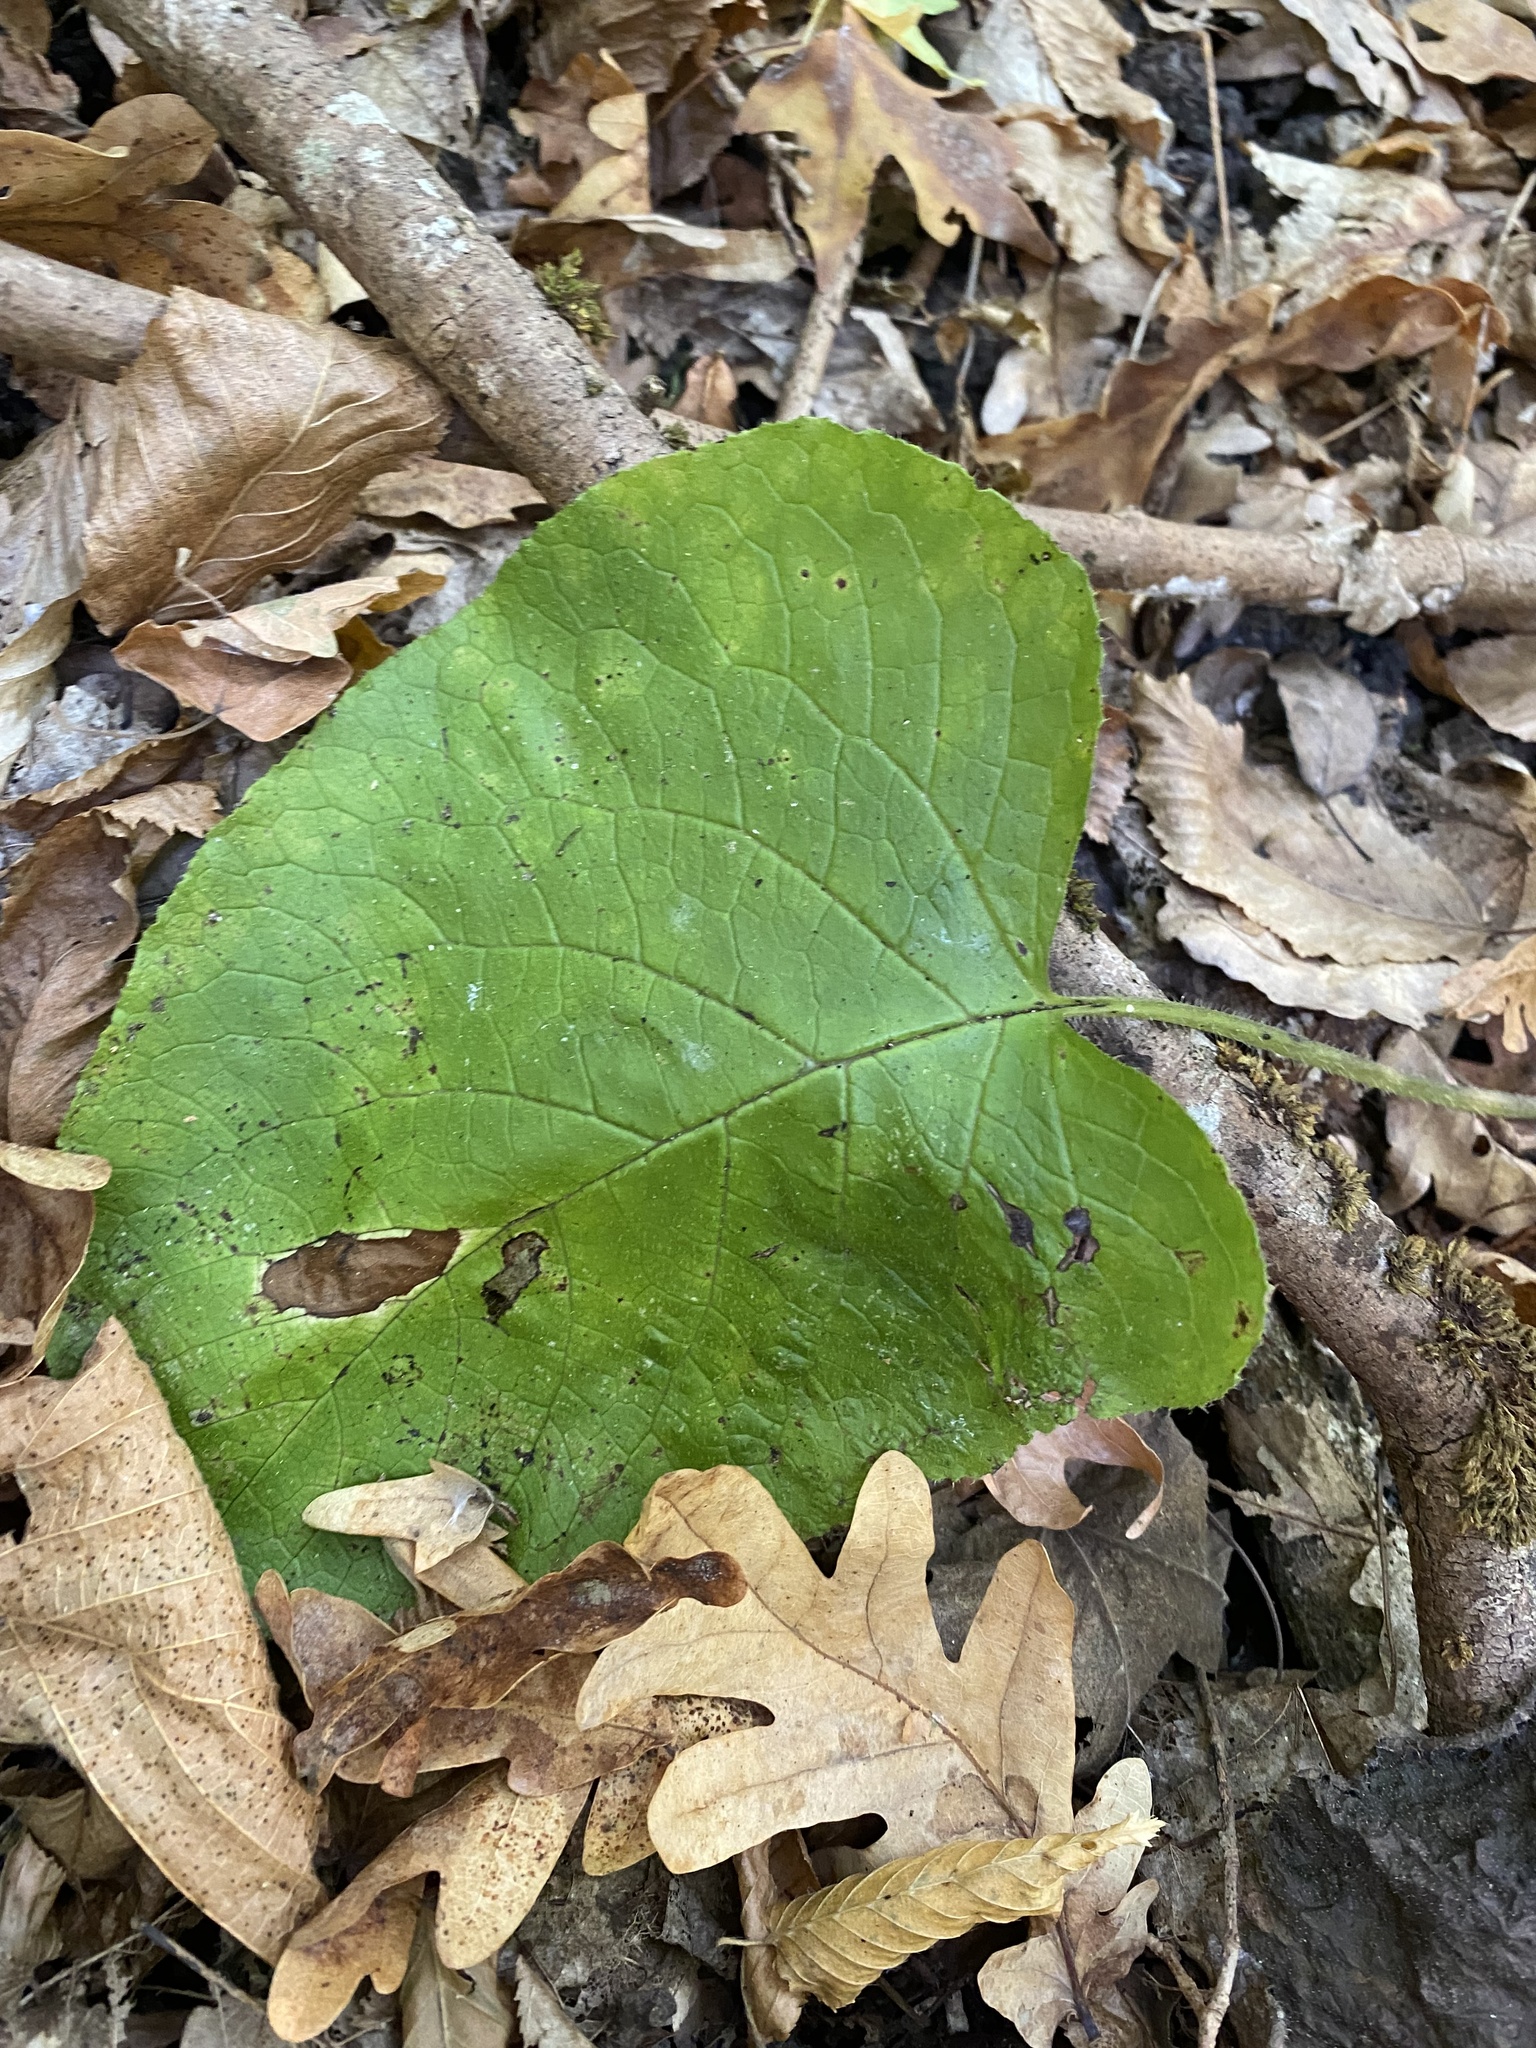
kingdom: Plantae
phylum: Tracheophyta
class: Magnoliopsida
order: Boraginales
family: Boraginaceae
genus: Trachystemon
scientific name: Trachystemon orientale
